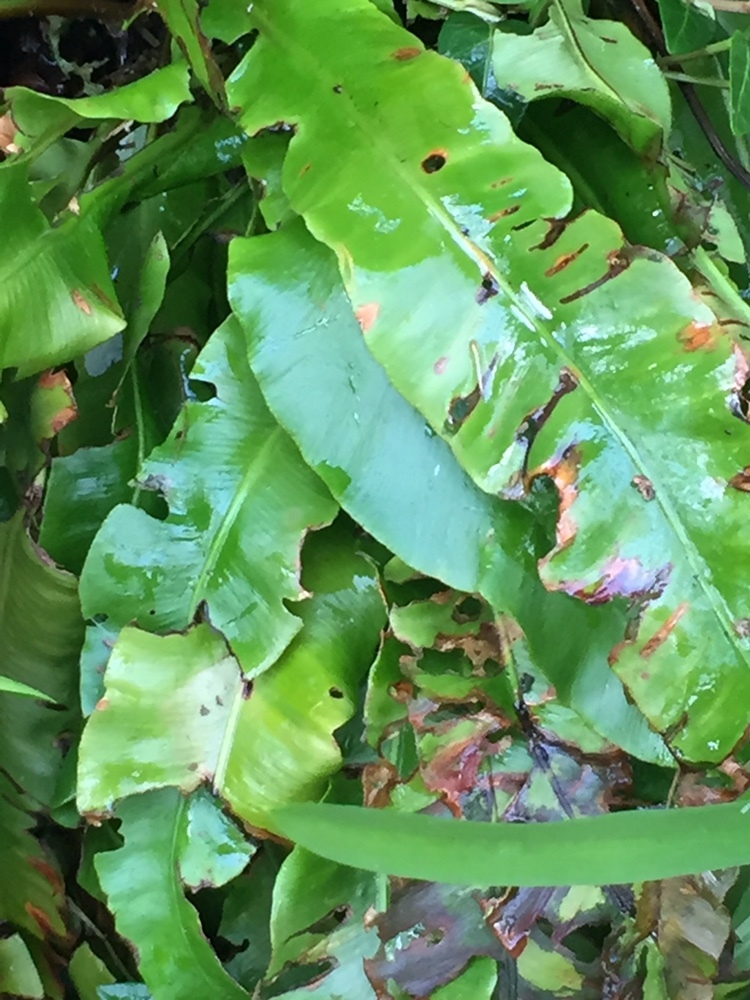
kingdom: Plantae
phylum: Tracheophyta
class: Polypodiopsida
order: Polypodiales
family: Aspleniaceae
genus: Asplenium
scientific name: Asplenium scolopendrium
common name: Hart's-tongue fern
